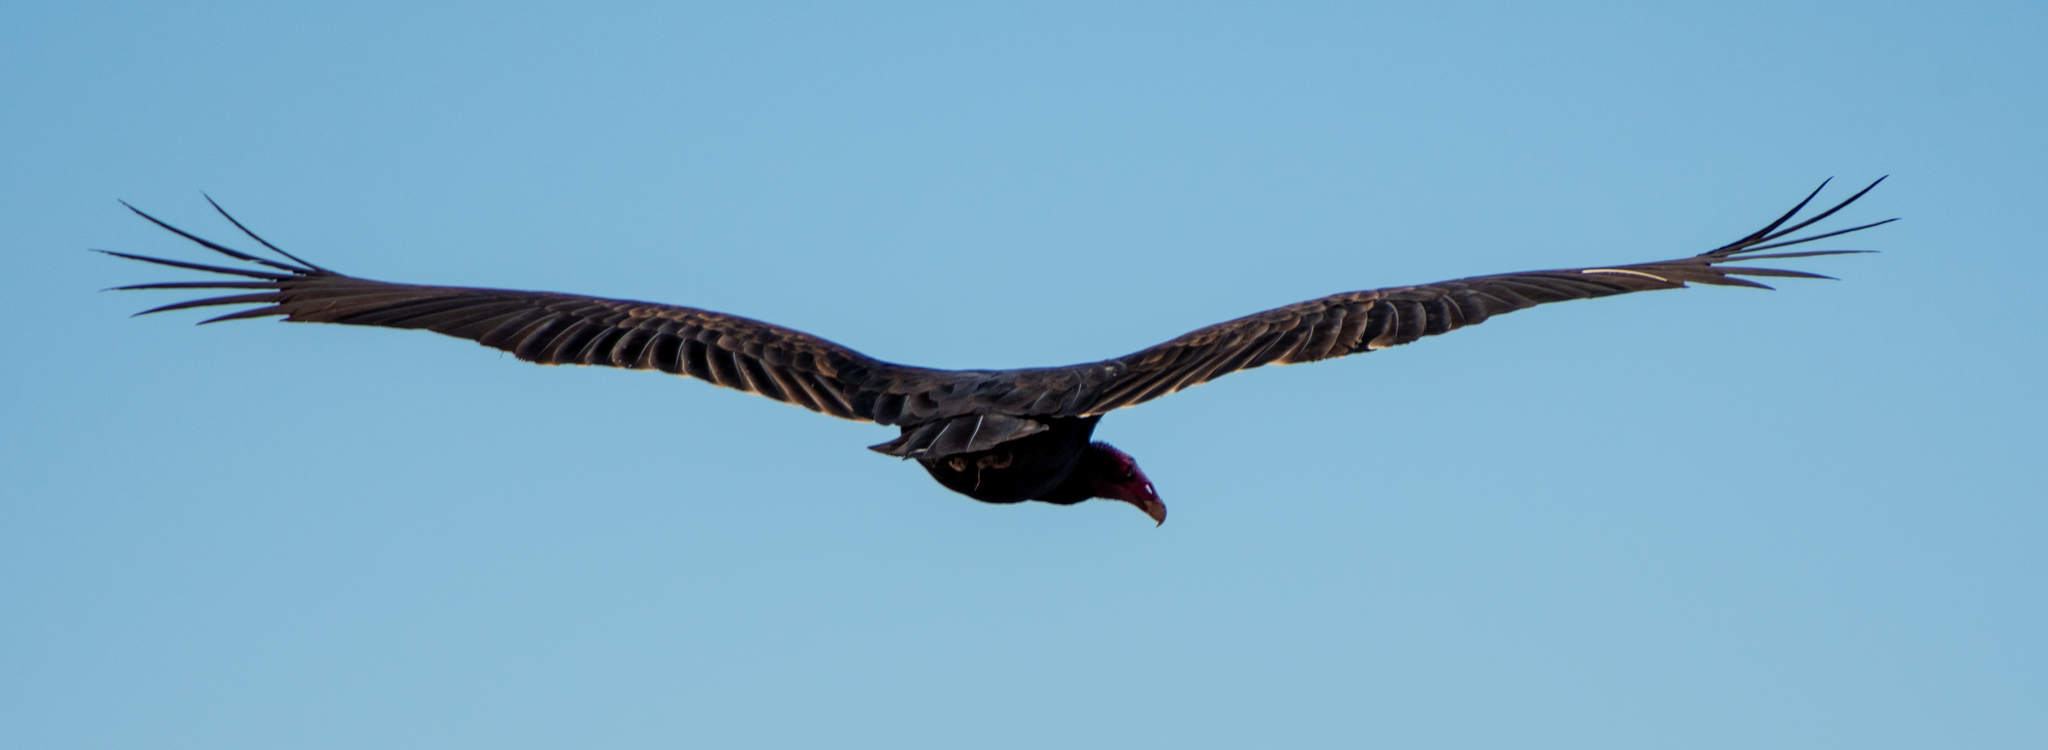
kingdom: Animalia
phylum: Chordata
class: Aves
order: Accipitriformes
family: Cathartidae
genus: Cathartes
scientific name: Cathartes aura
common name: Turkey vulture
